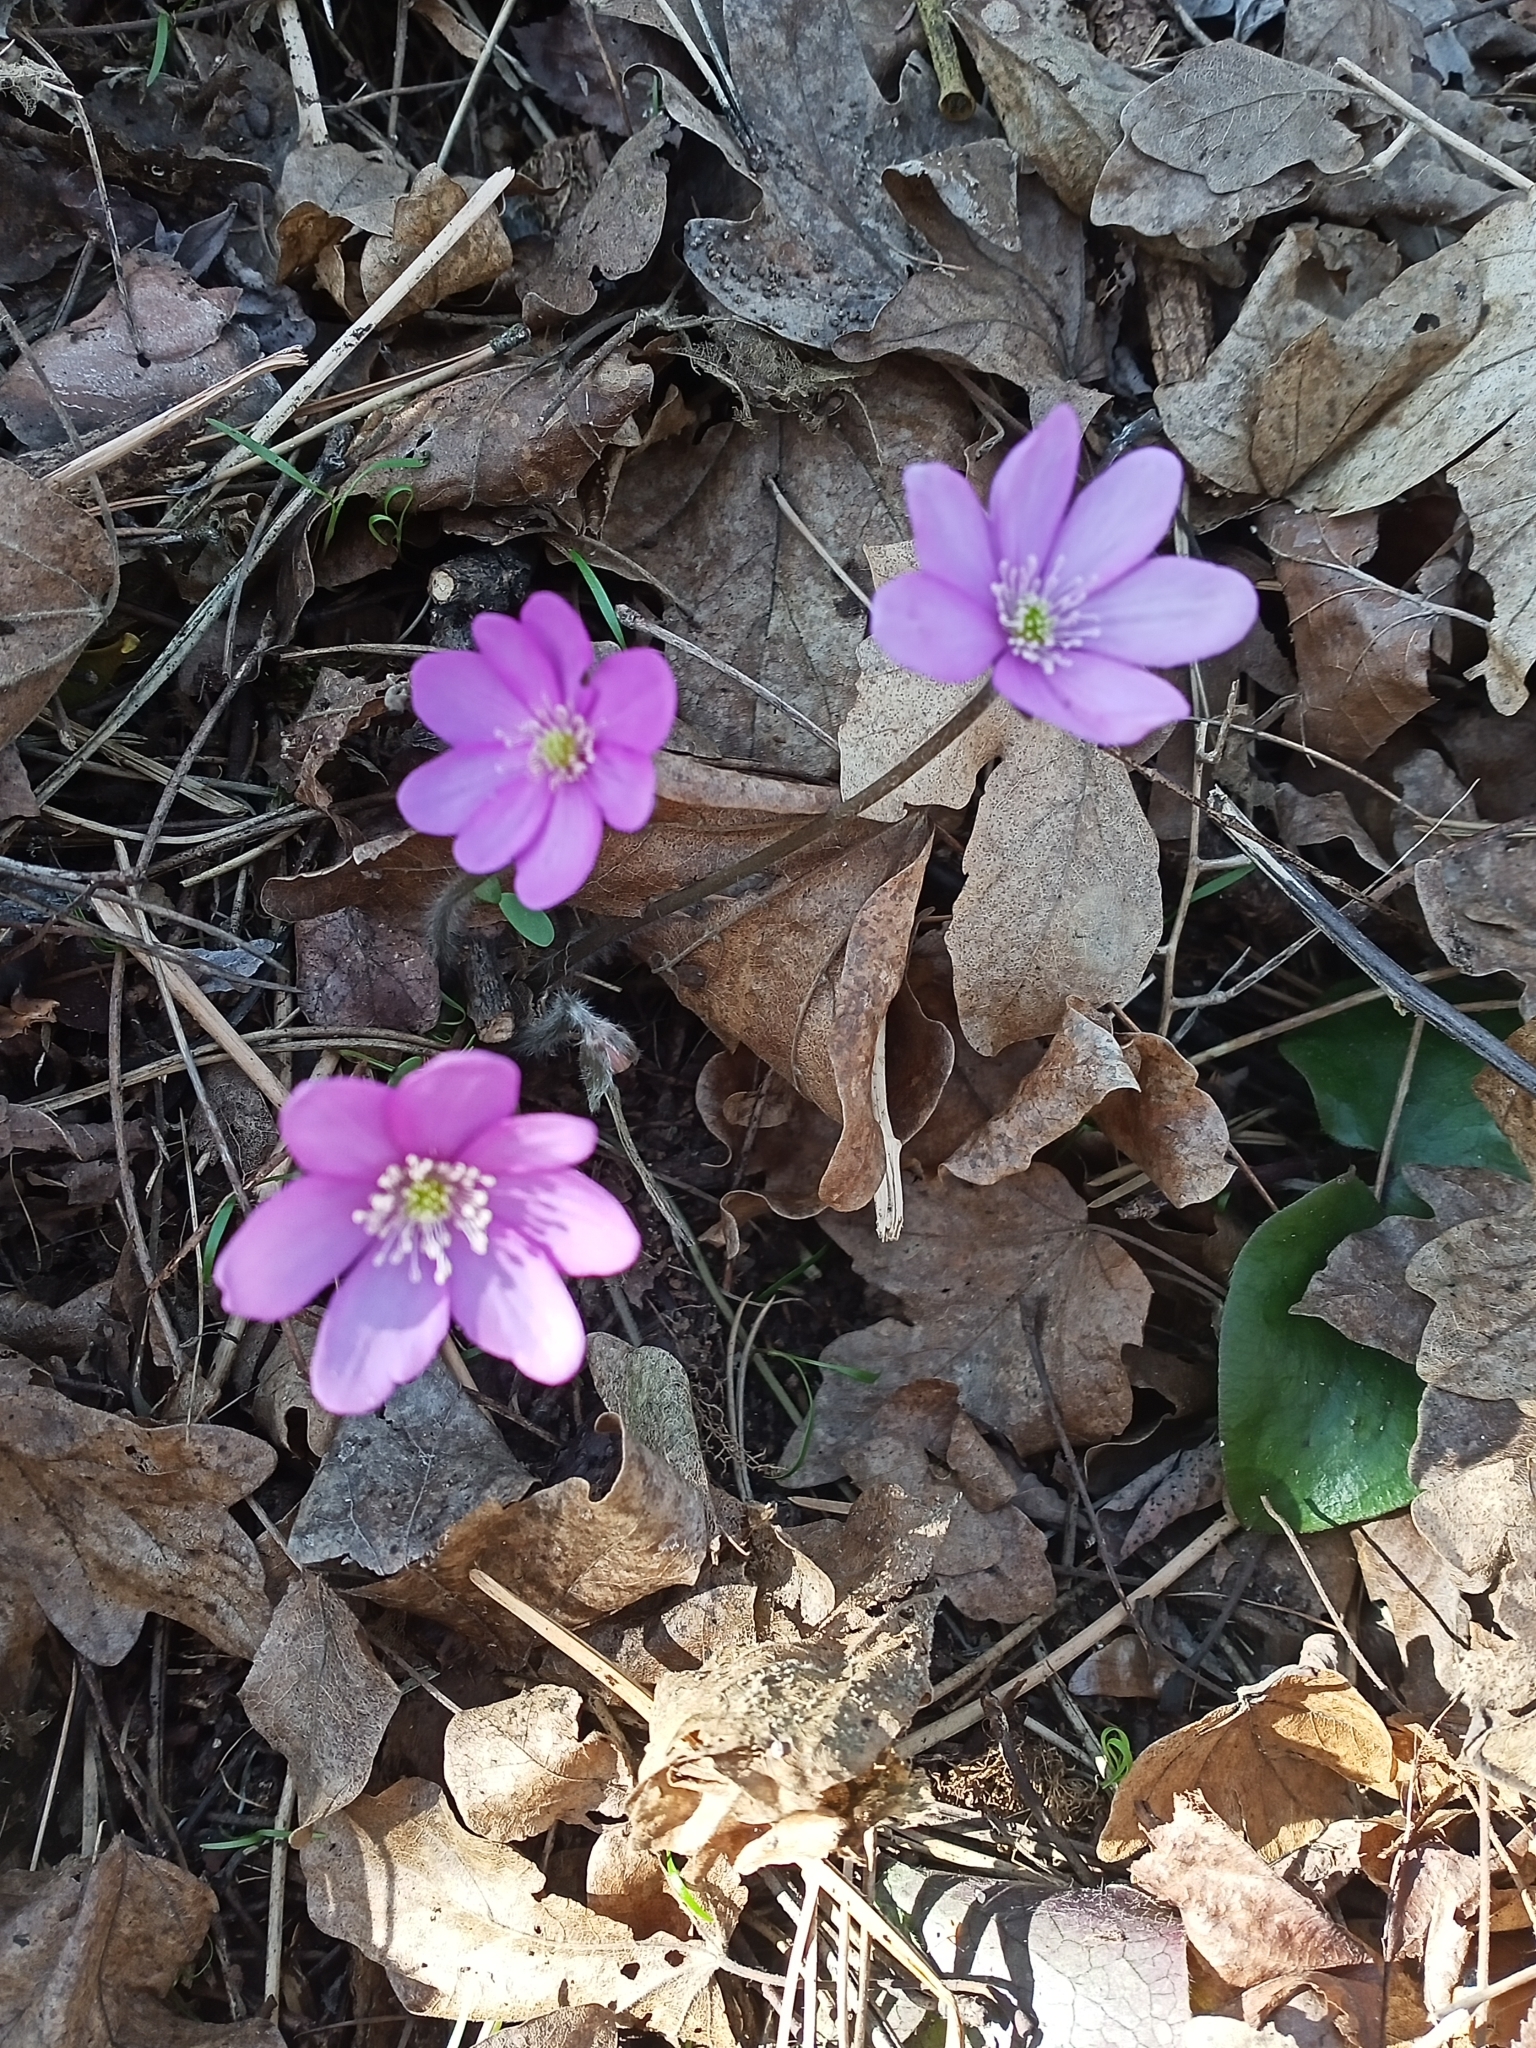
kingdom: Plantae
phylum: Tracheophyta
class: Magnoliopsida
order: Ranunculales
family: Ranunculaceae
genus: Hepatica
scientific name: Hepatica nobilis
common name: Liverleaf
